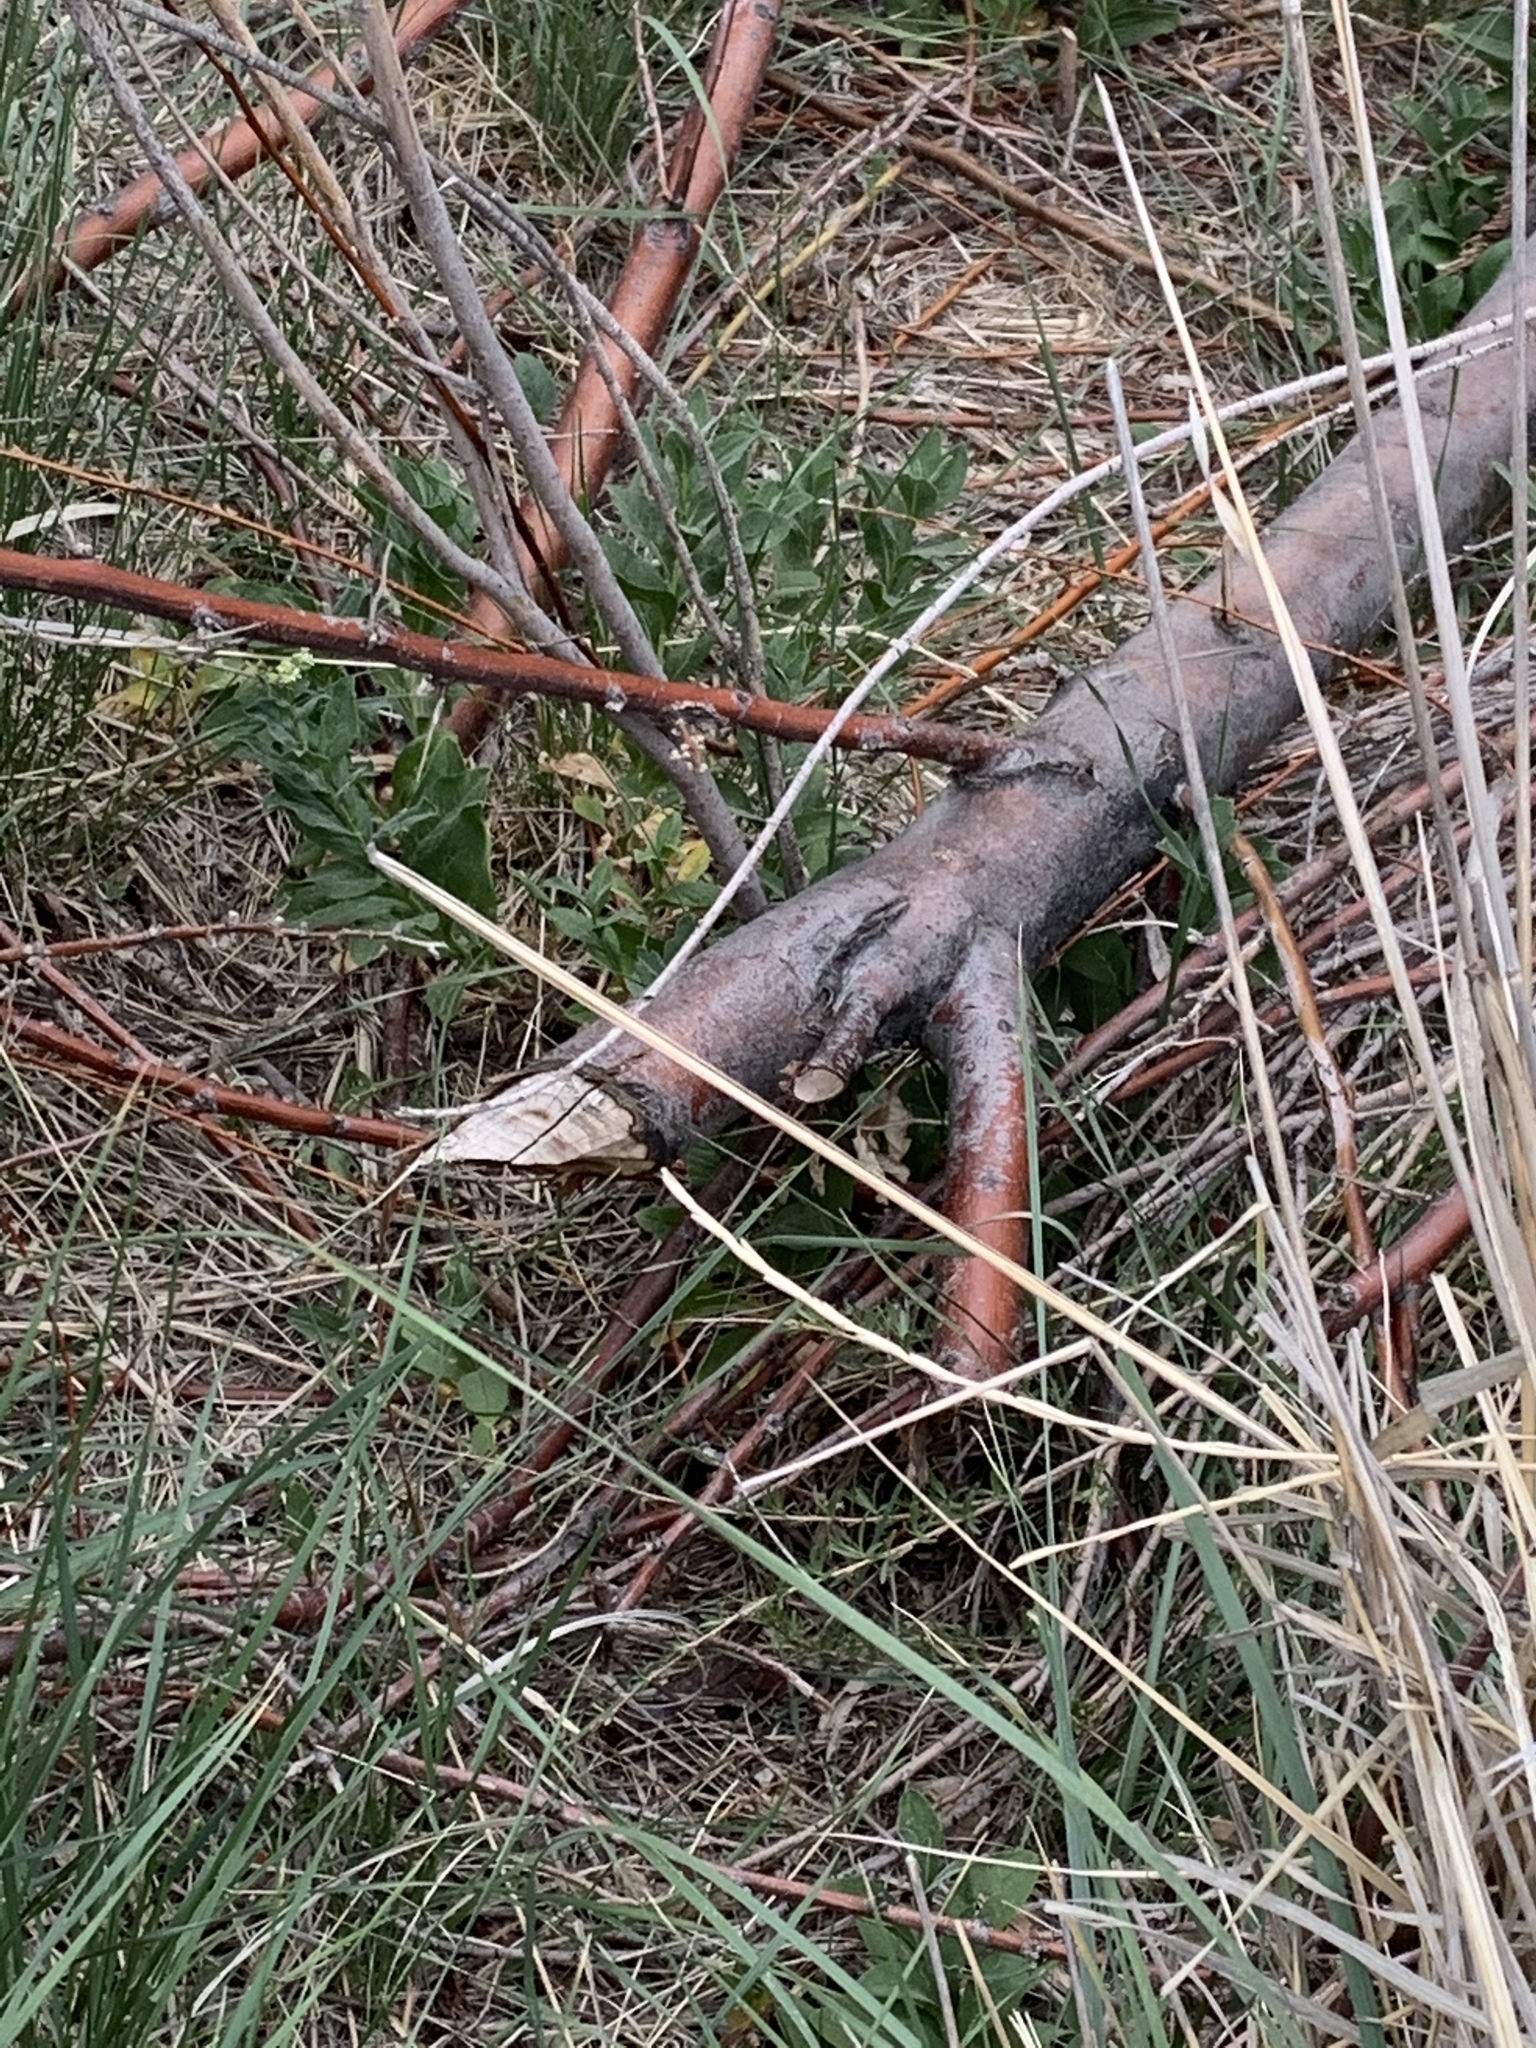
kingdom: Animalia
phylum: Chordata
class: Mammalia
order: Rodentia
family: Castoridae
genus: Castor
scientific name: Castor canadensis
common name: American beaver
